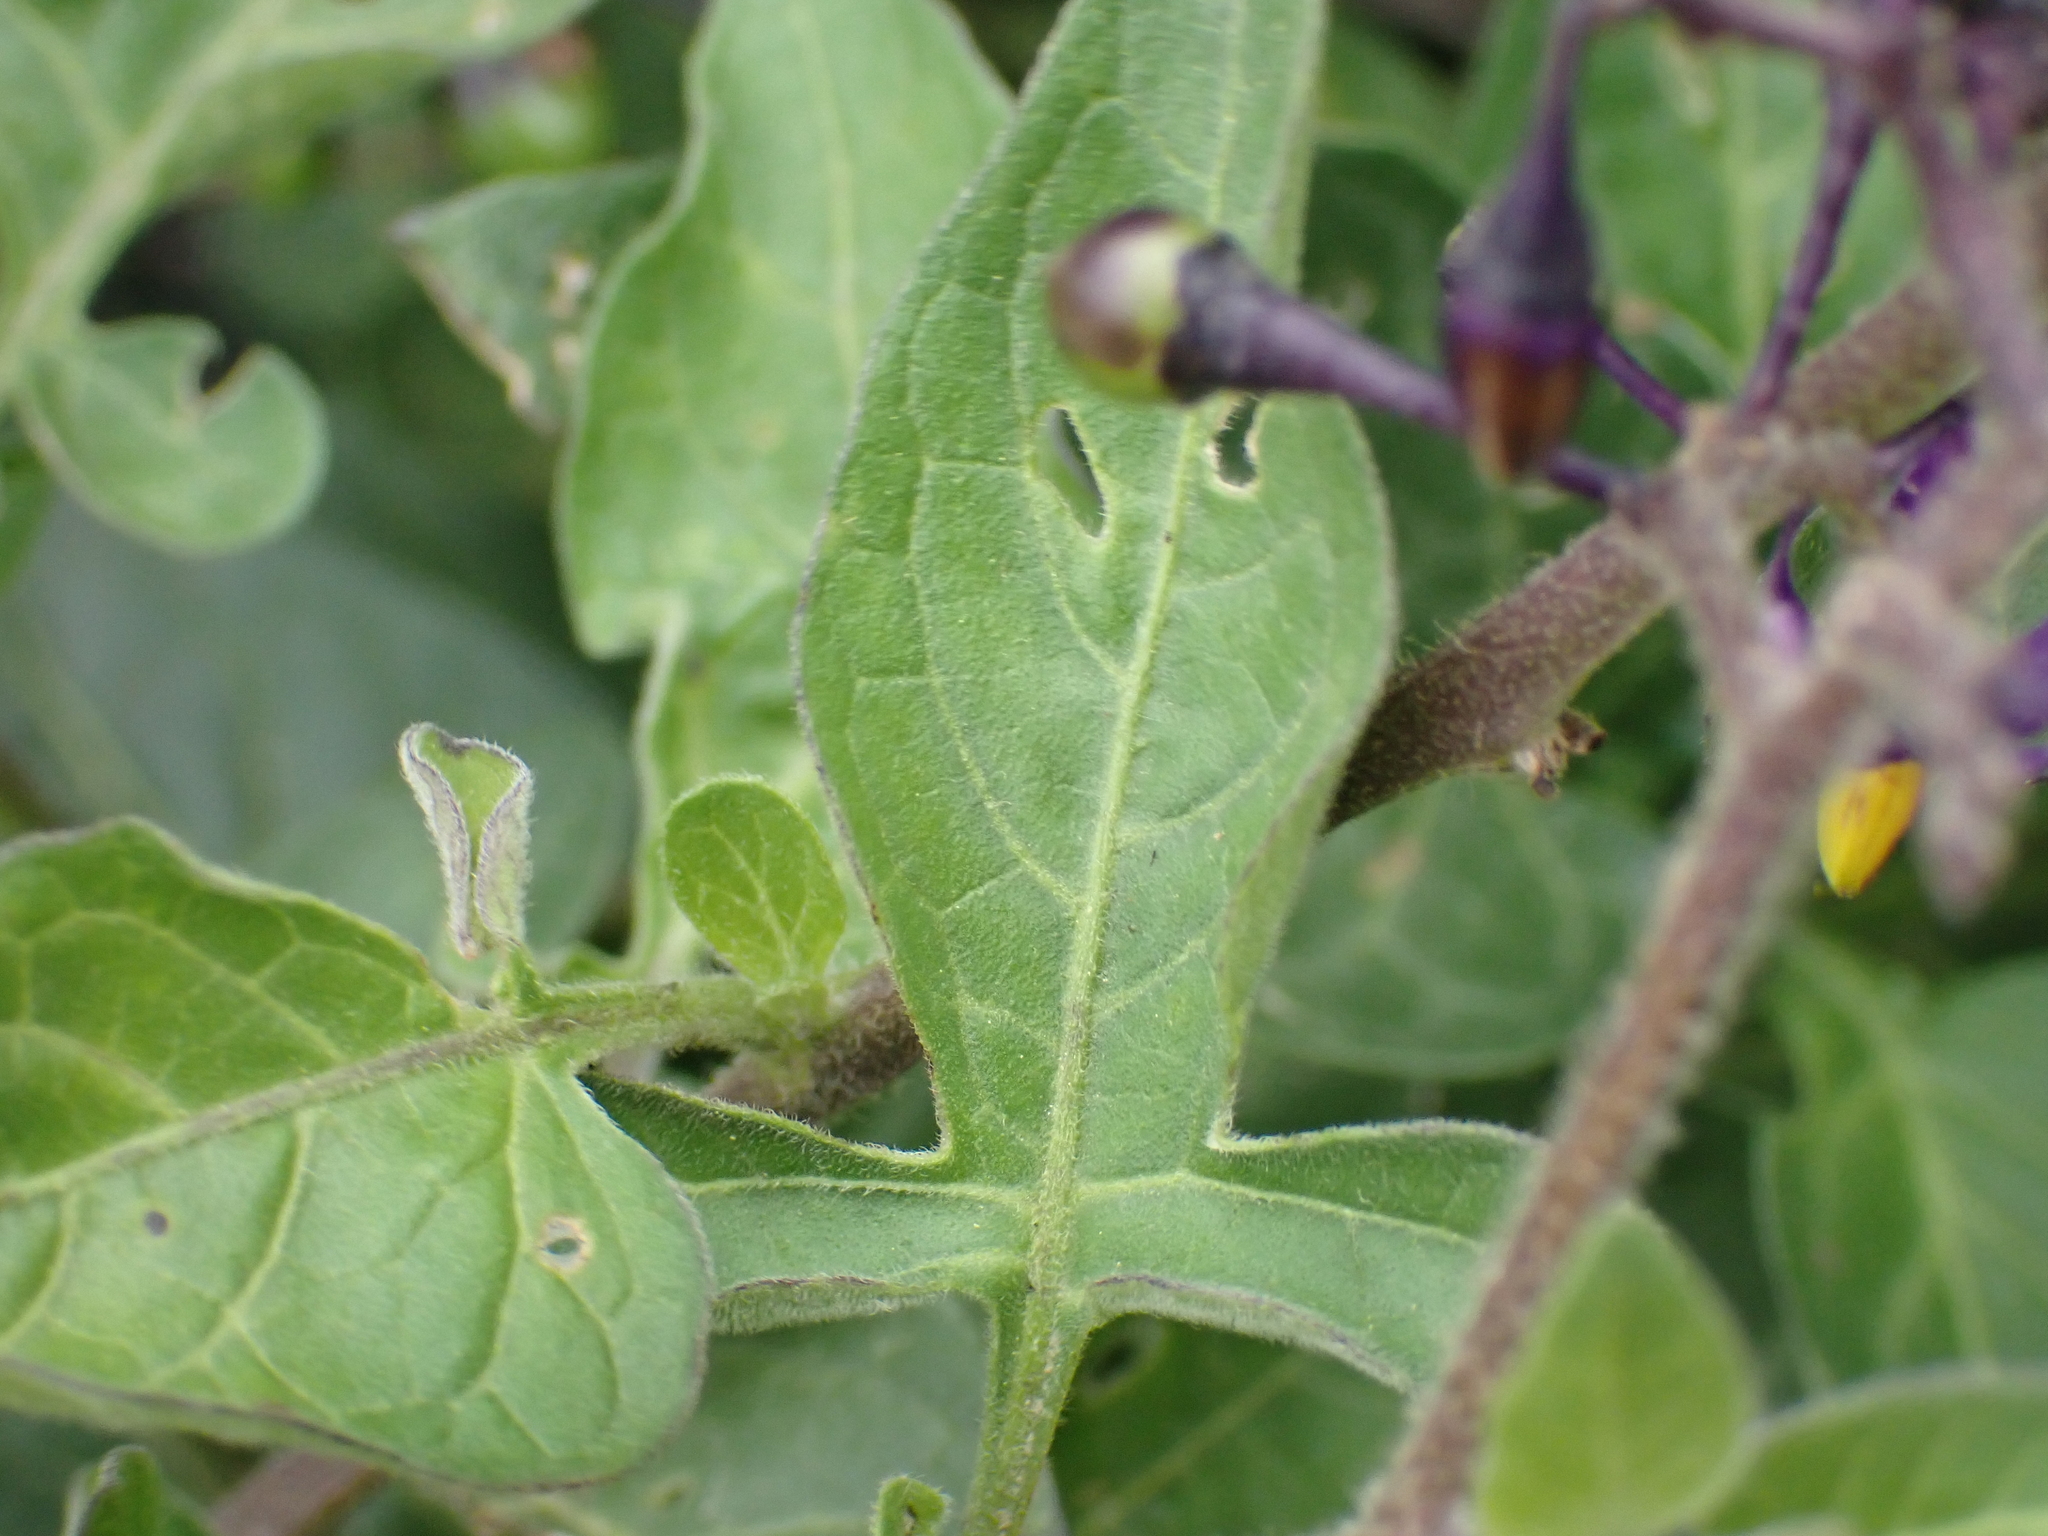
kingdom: Plantae
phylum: Tracheophyta
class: Magnoliopsida
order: Solanales
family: Solanaceae
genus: Solanum
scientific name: Solanum dulcamara
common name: Climbing nightshade
